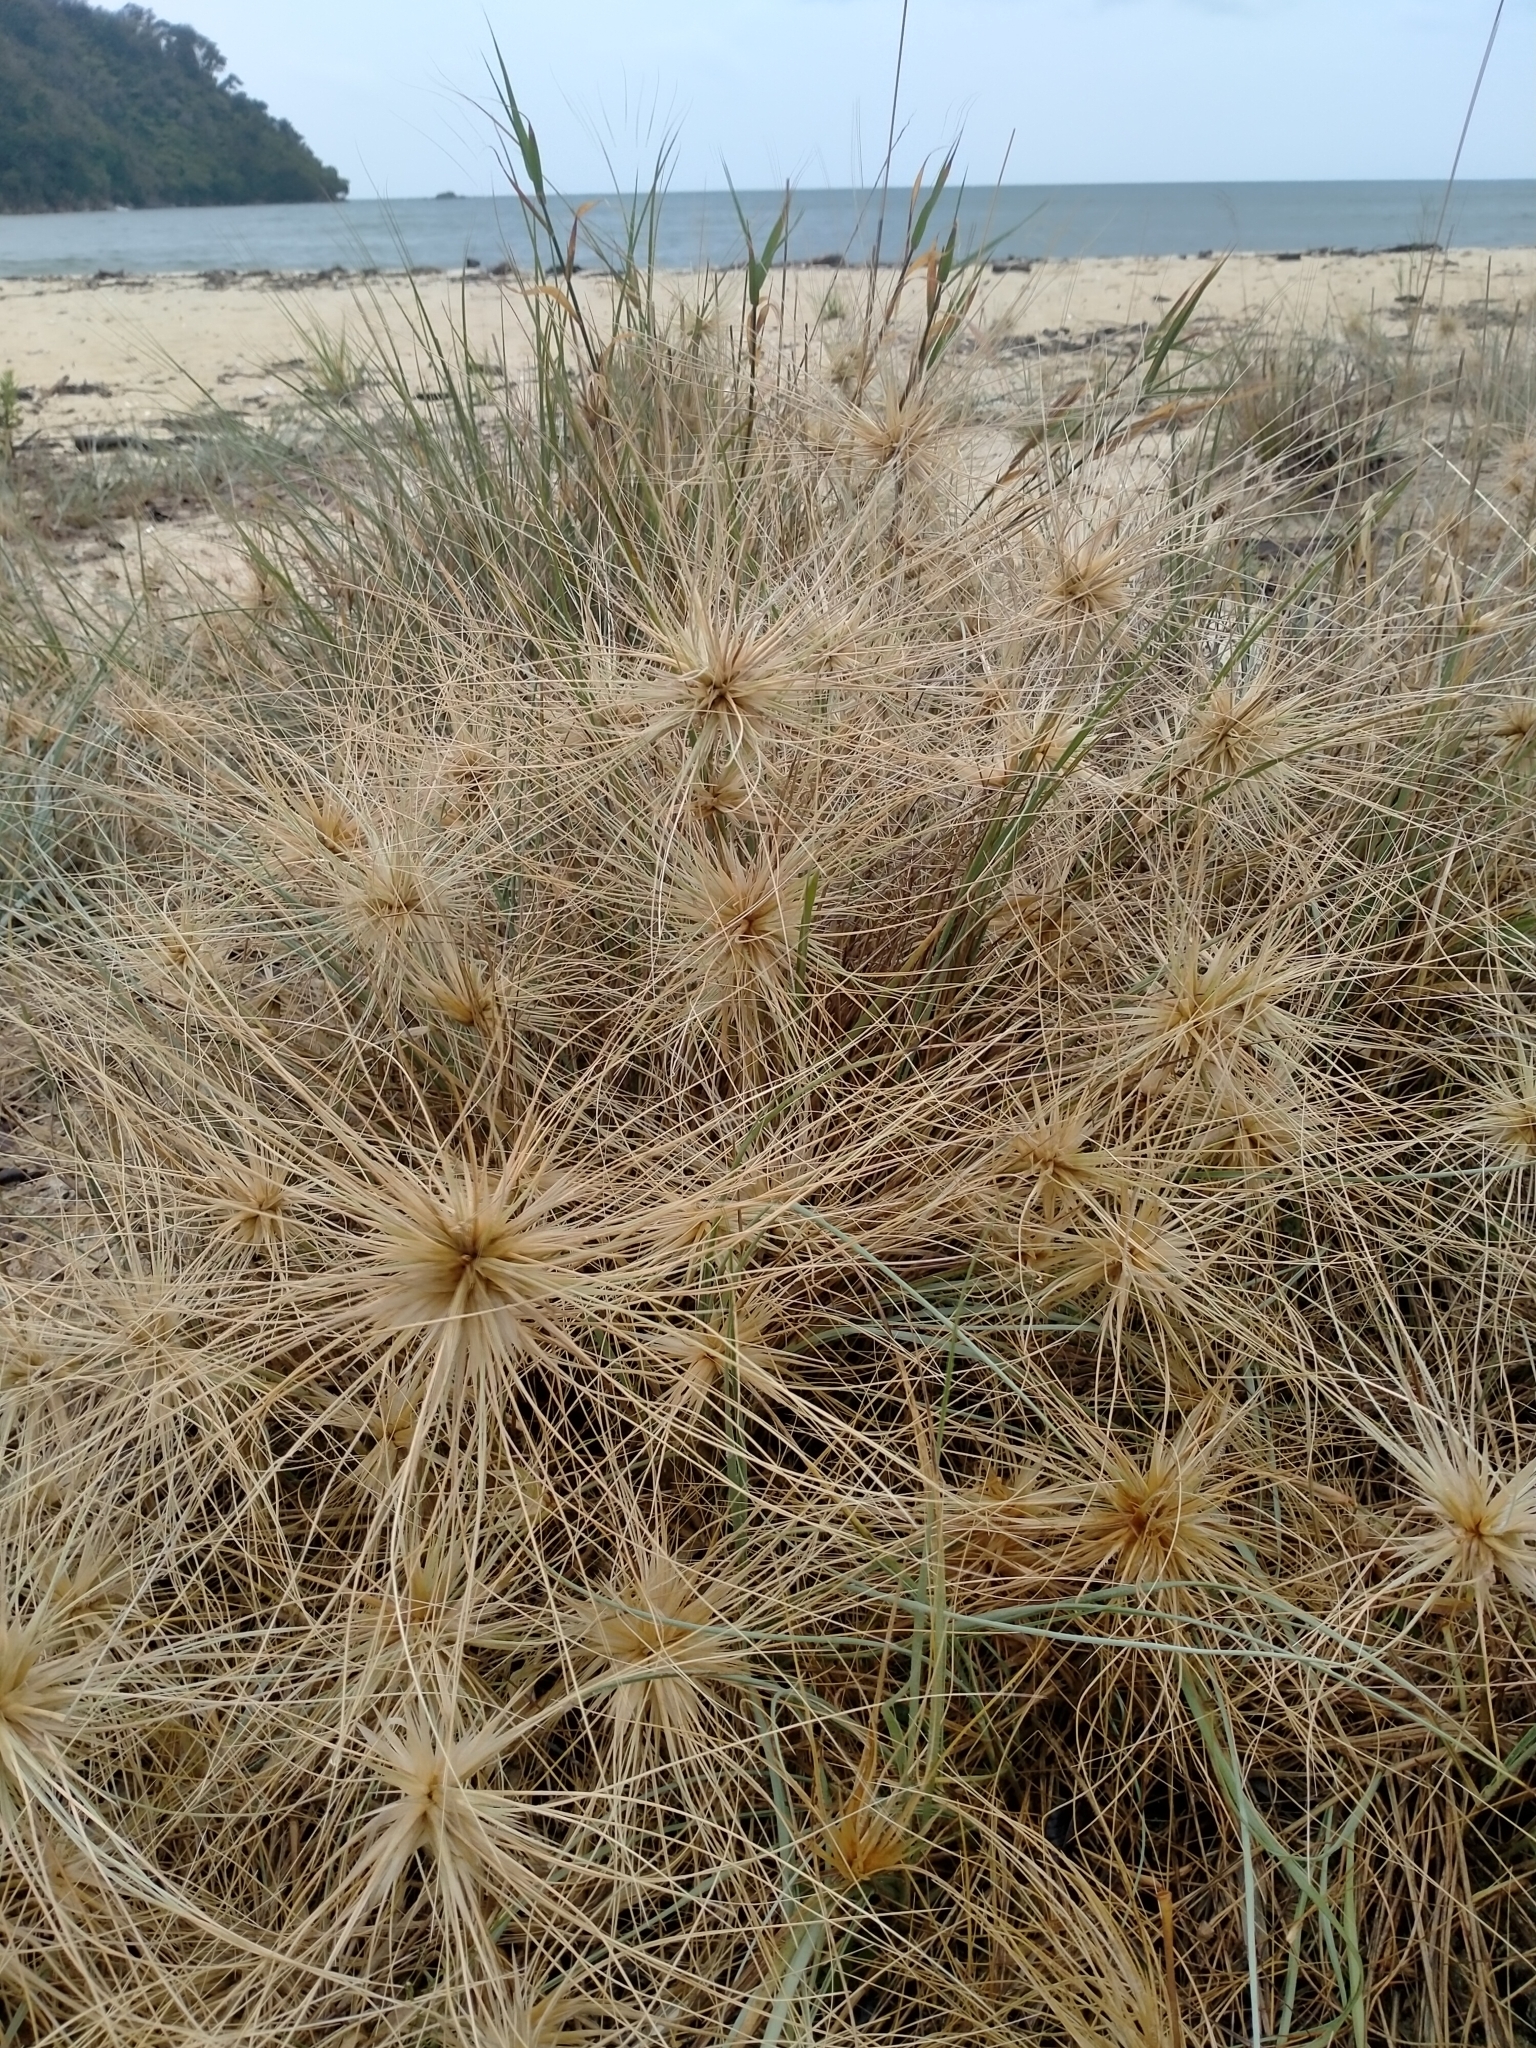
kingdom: Plantae
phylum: Tracheophyta
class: Liliopsida
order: Poales
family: Poaceae
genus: Spinifex
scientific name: Spinifex sericeus
